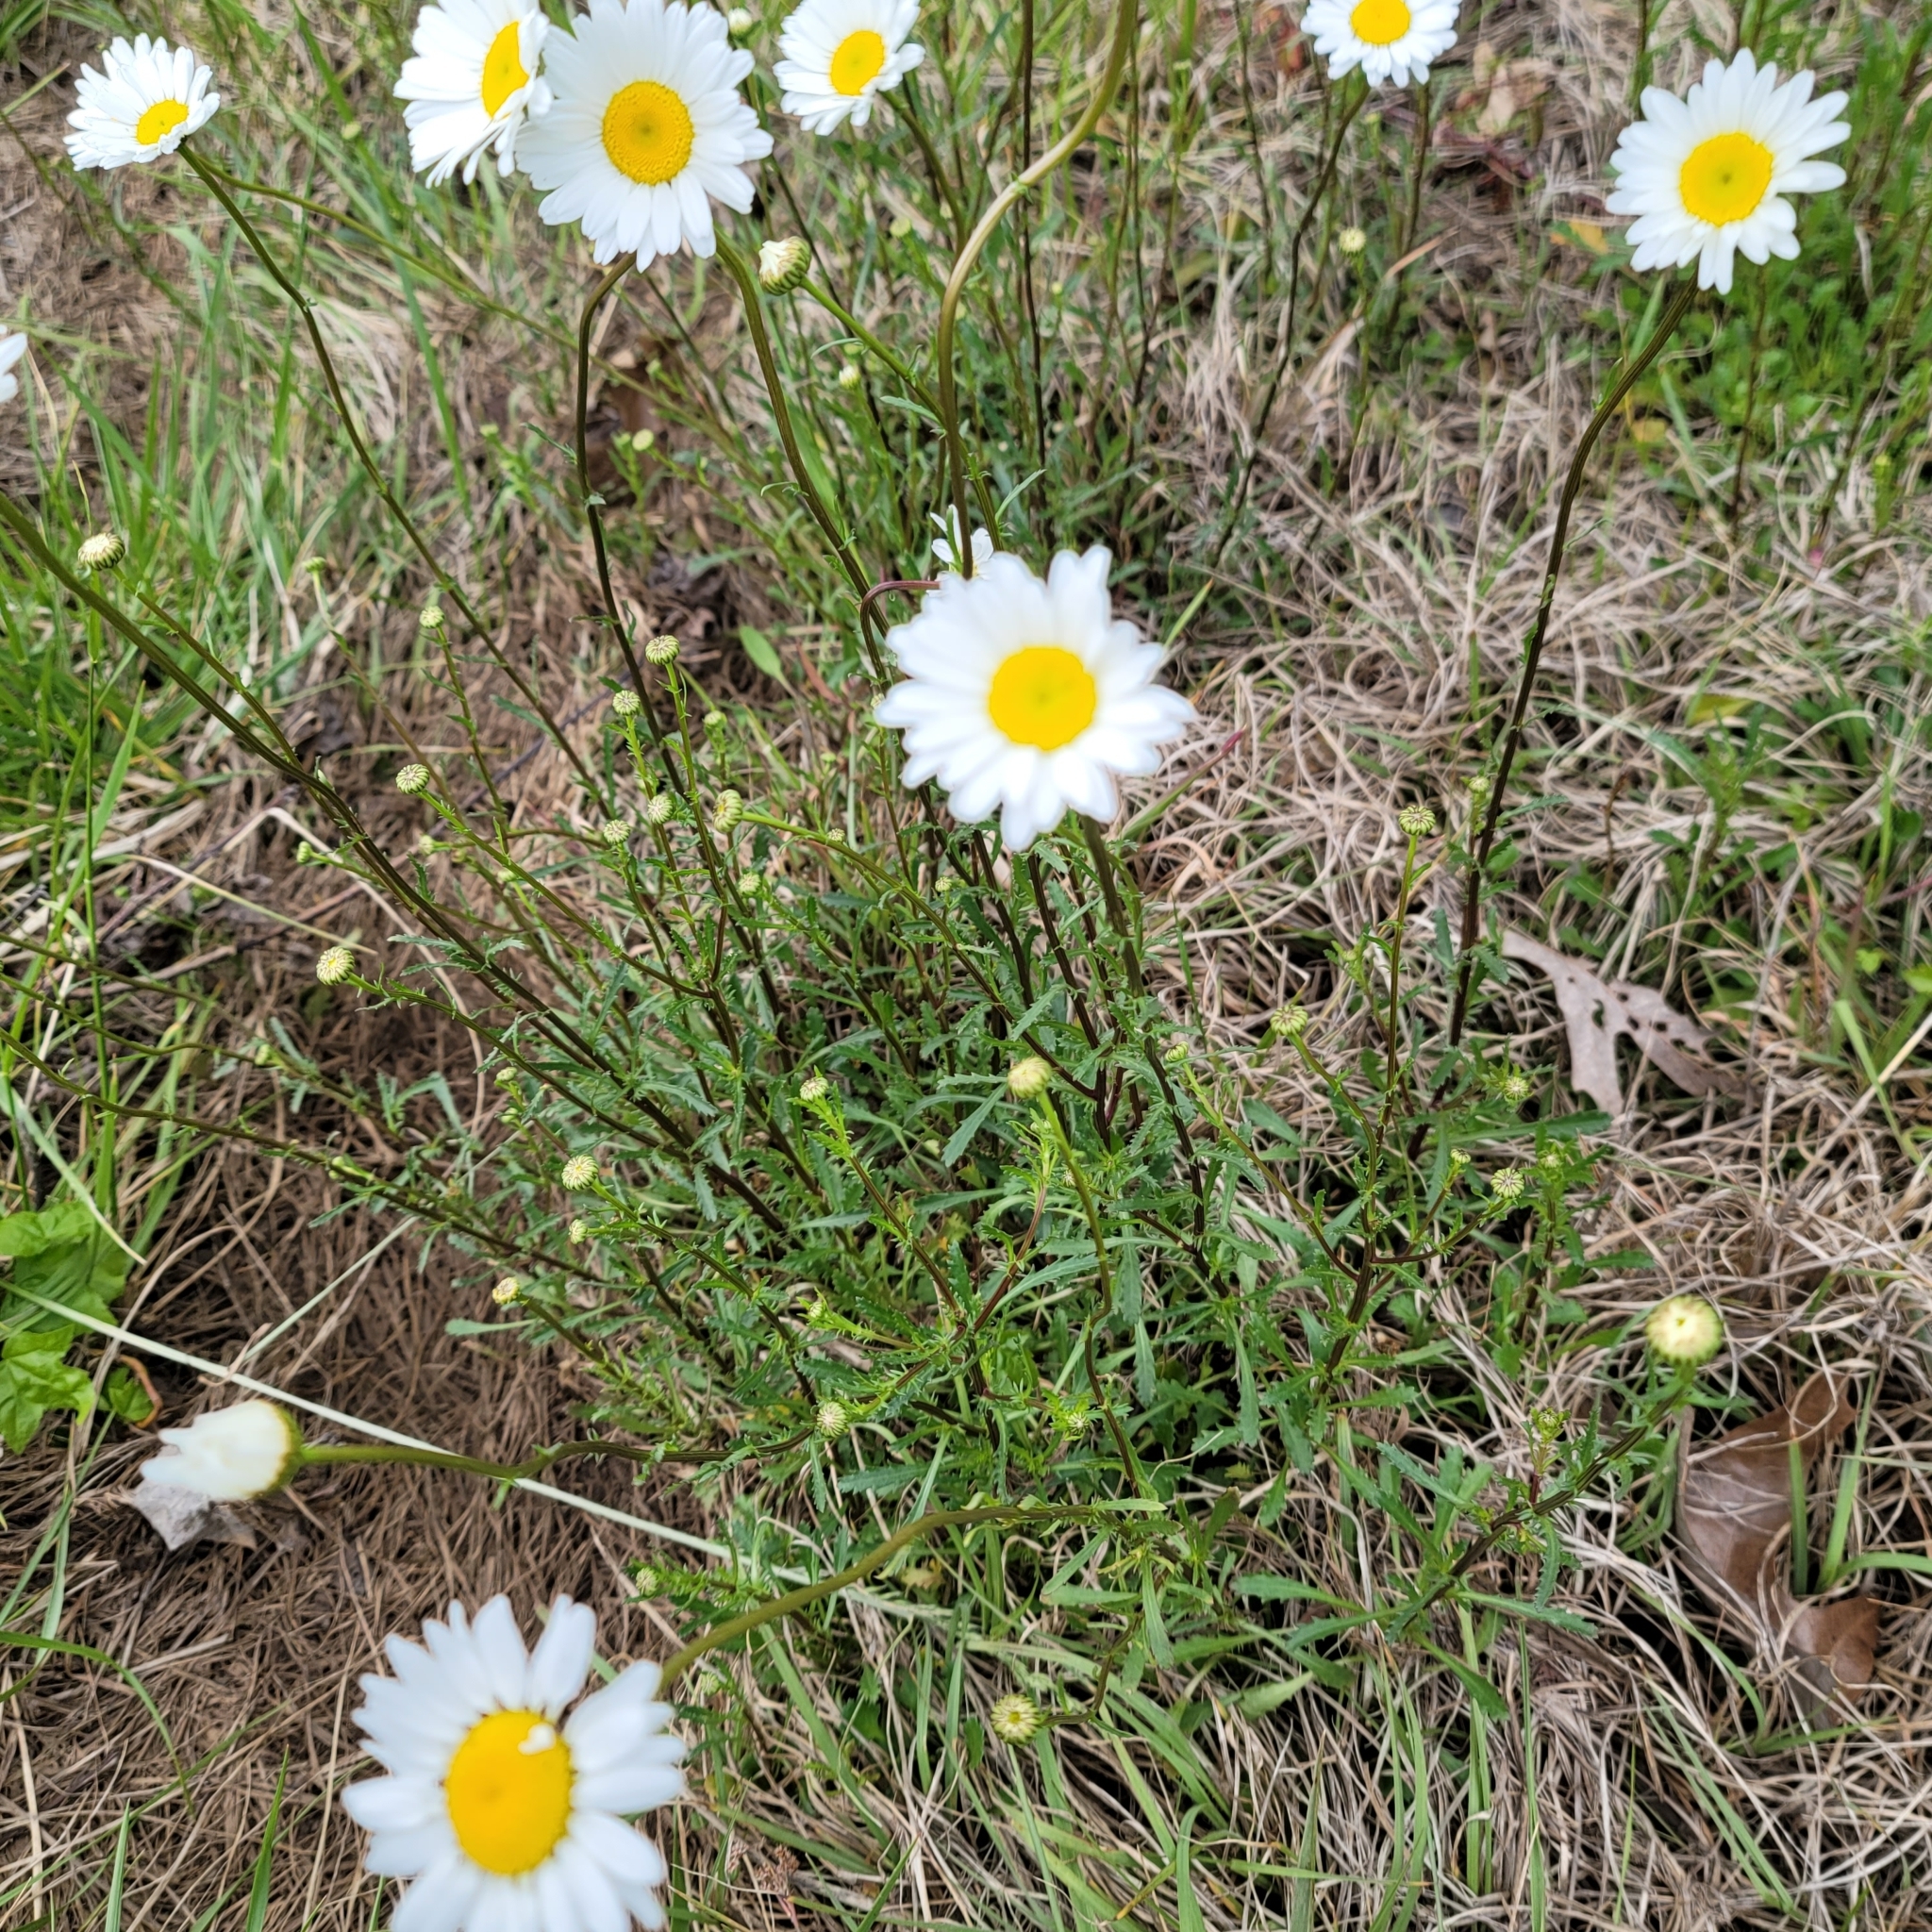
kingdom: Plantae
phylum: Tracheophyta
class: Magnoliopsida
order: Asterales
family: Asteraceae
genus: Leucanthemum
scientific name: Leucanthemum vulgare
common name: Oxeye daisy
